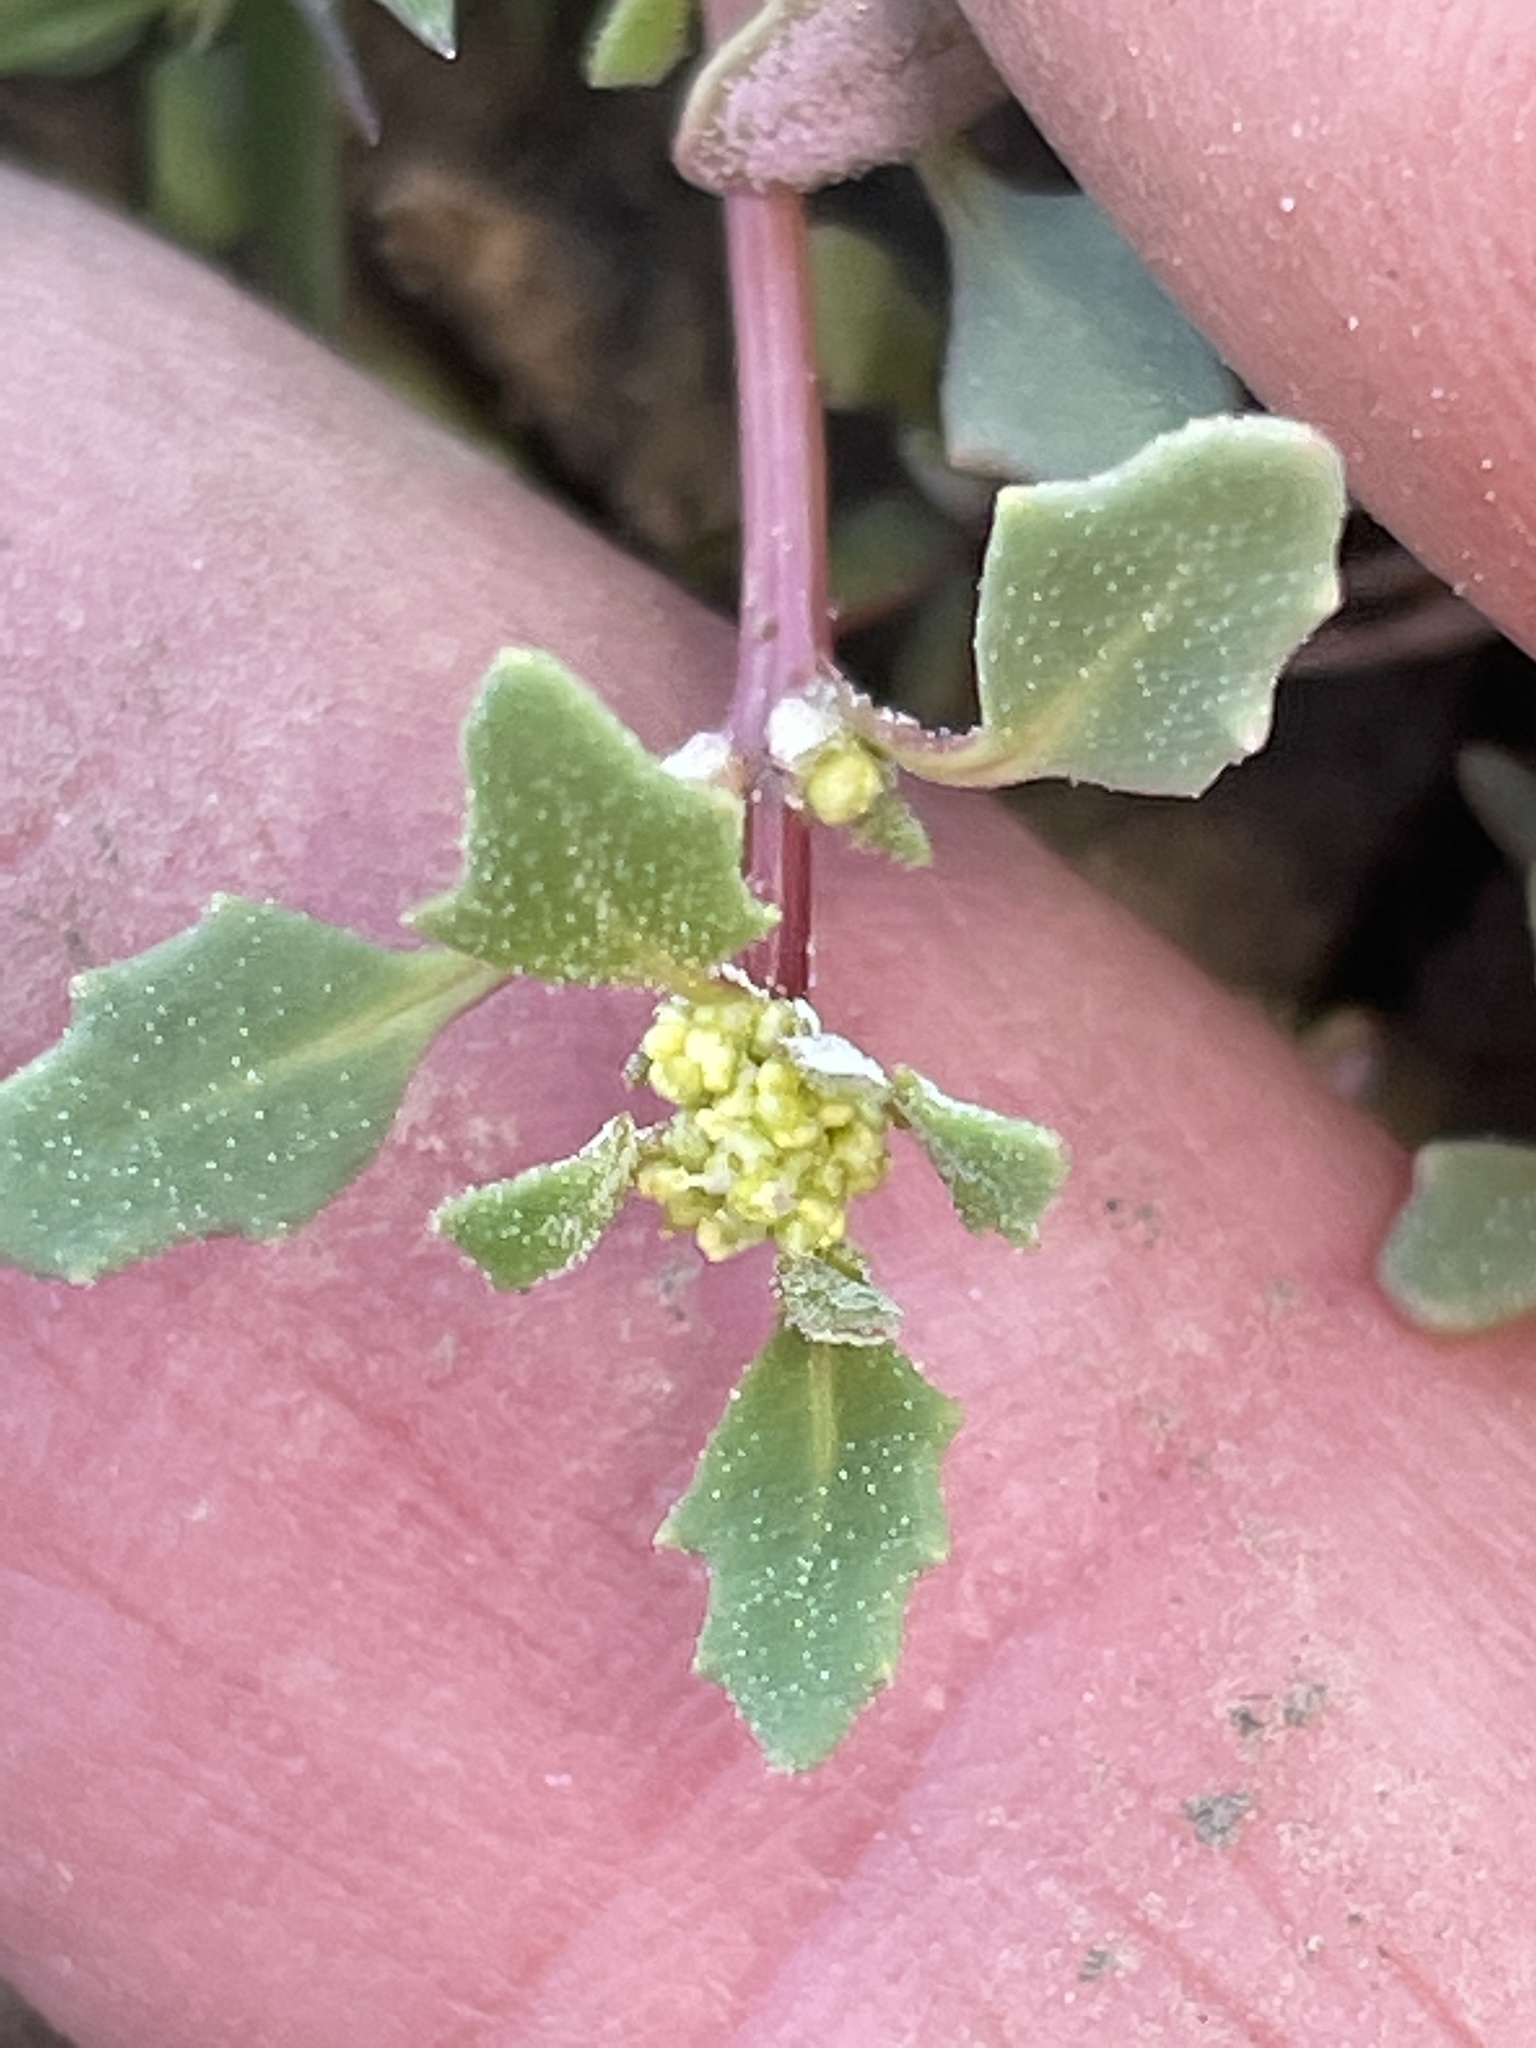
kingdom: Plantae
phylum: Tracheophyta
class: Magnoliopsida
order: Caryophyllales
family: Amaranthaceae
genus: Oxybasis
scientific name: Oxybasis glauca
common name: Glaucous goosefoot
